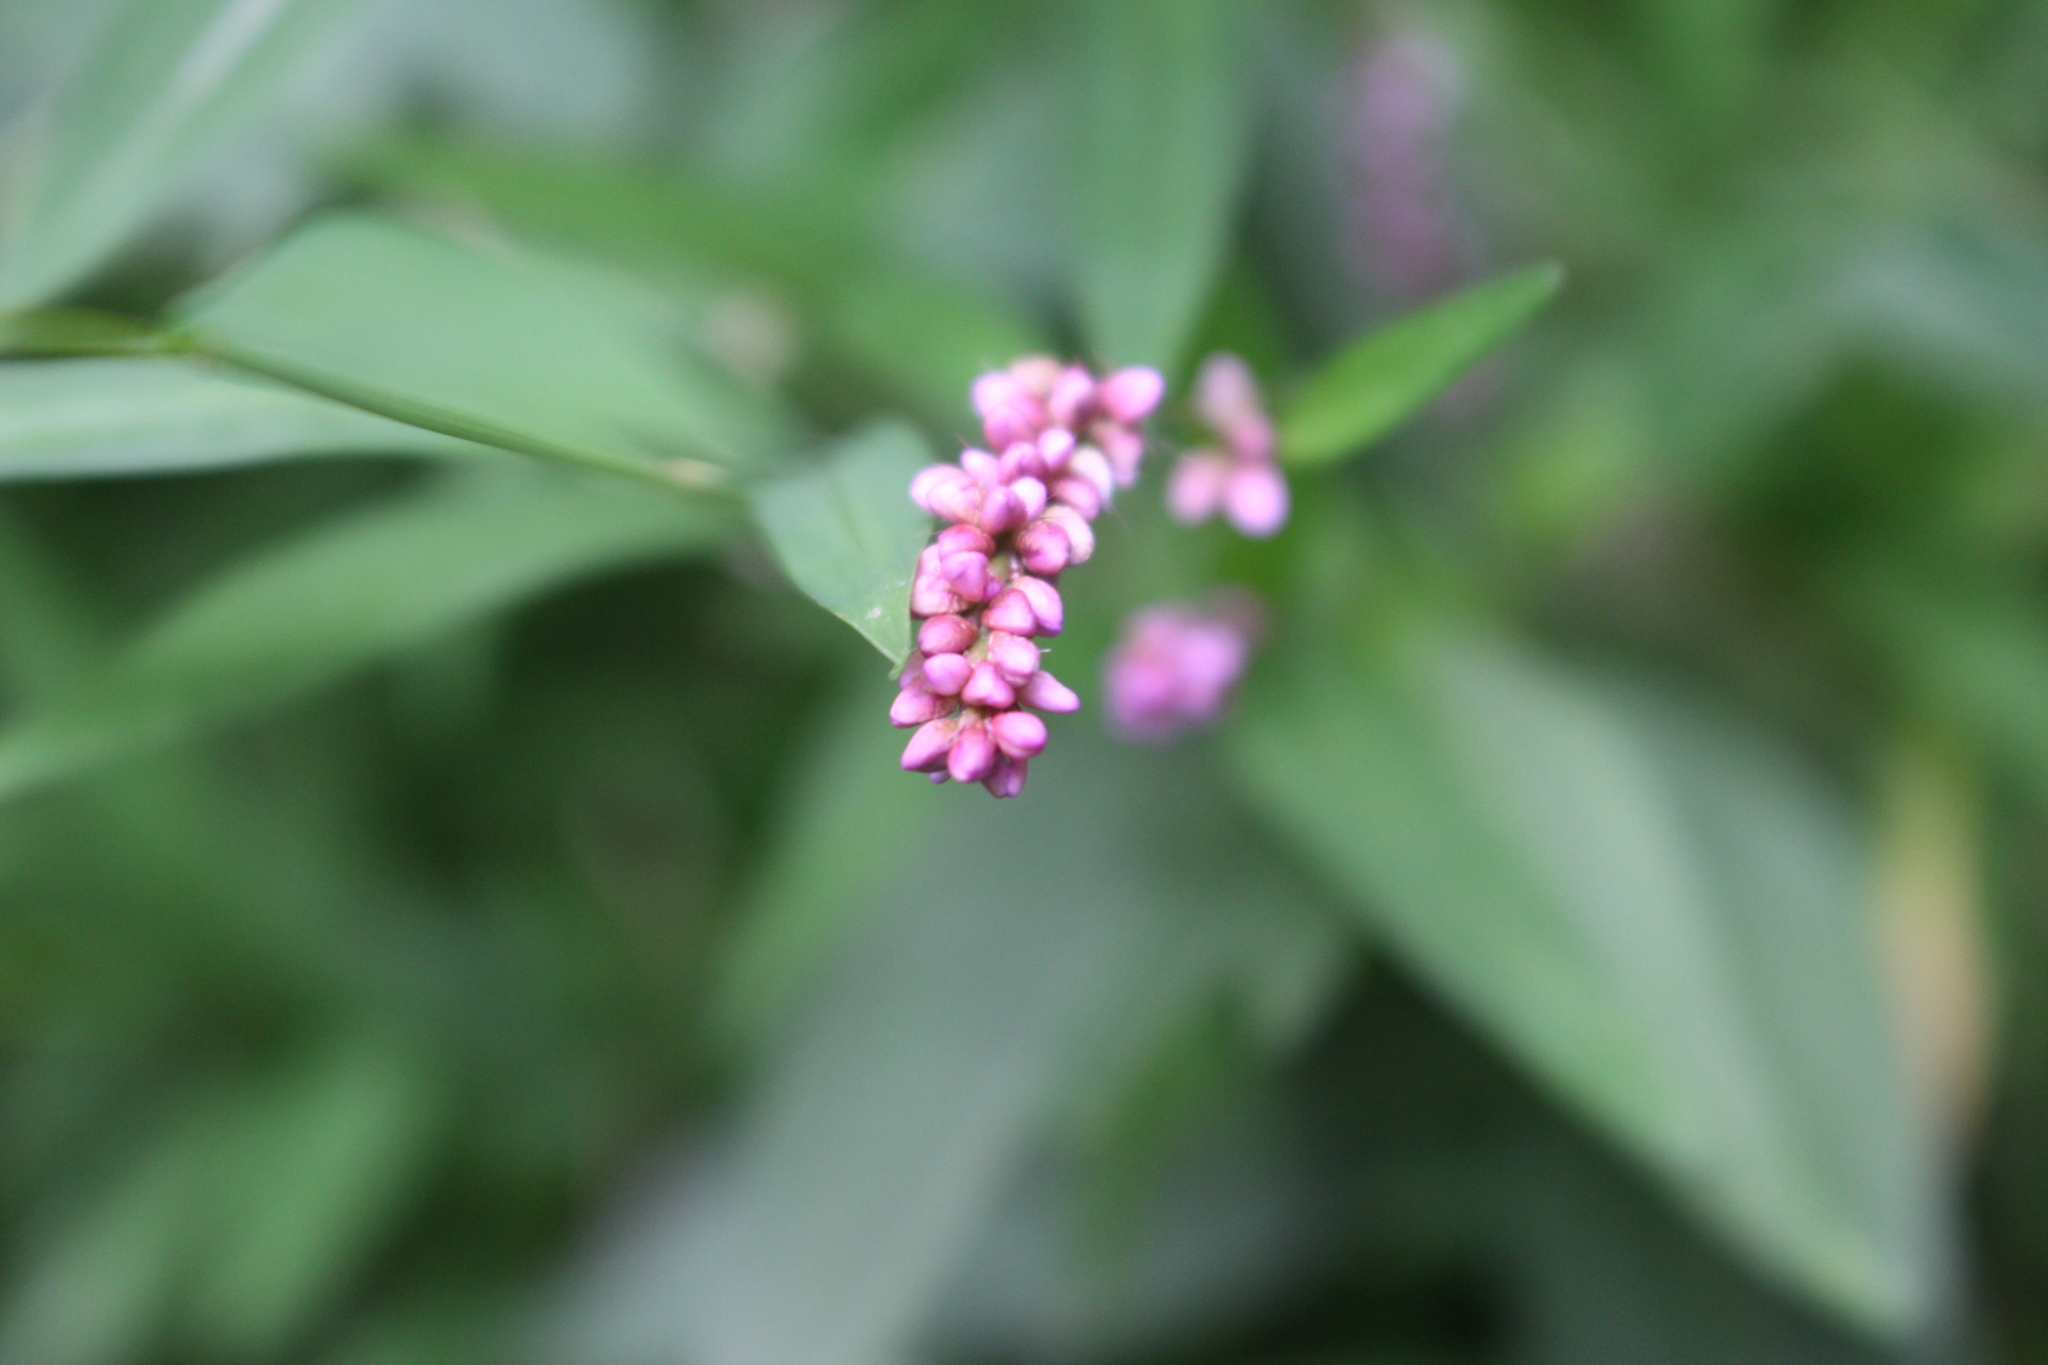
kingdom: Plantae
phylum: Tracheophyta
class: Magnoliopsida
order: Caryophyllales
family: Polygonaceae
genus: Persicaria
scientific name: Persicaria longiseta
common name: Bristly lady's-thumb
